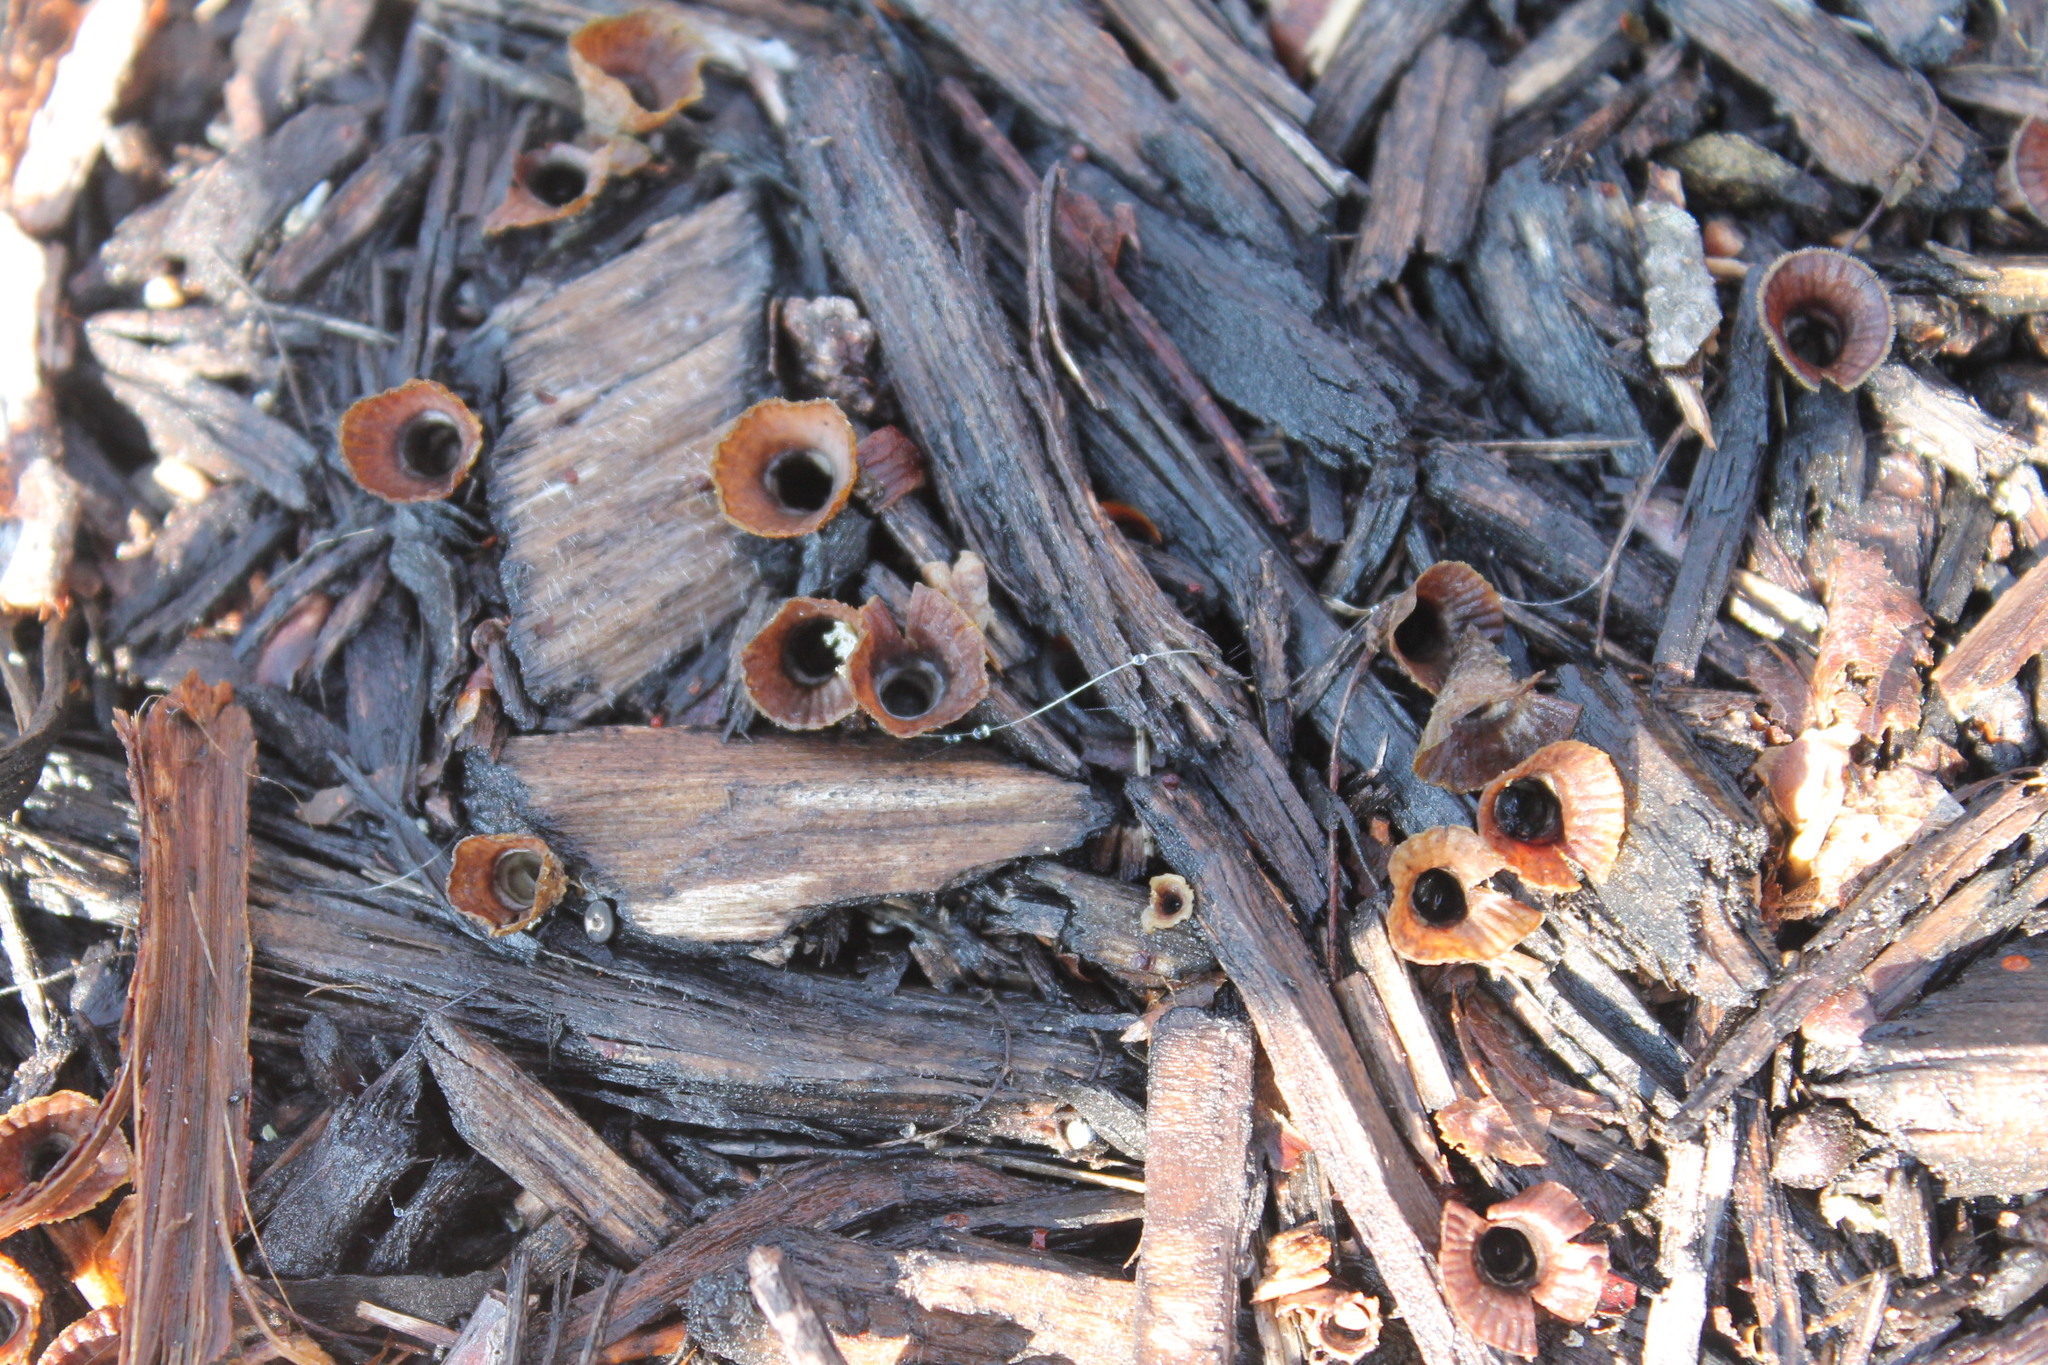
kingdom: Fungi
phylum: Basidiomycota
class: Agaricomycetes
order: Agaricales
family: Agaricaceae
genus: Cyathus
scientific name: Cyathus striatus
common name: Fluted bird's nest
